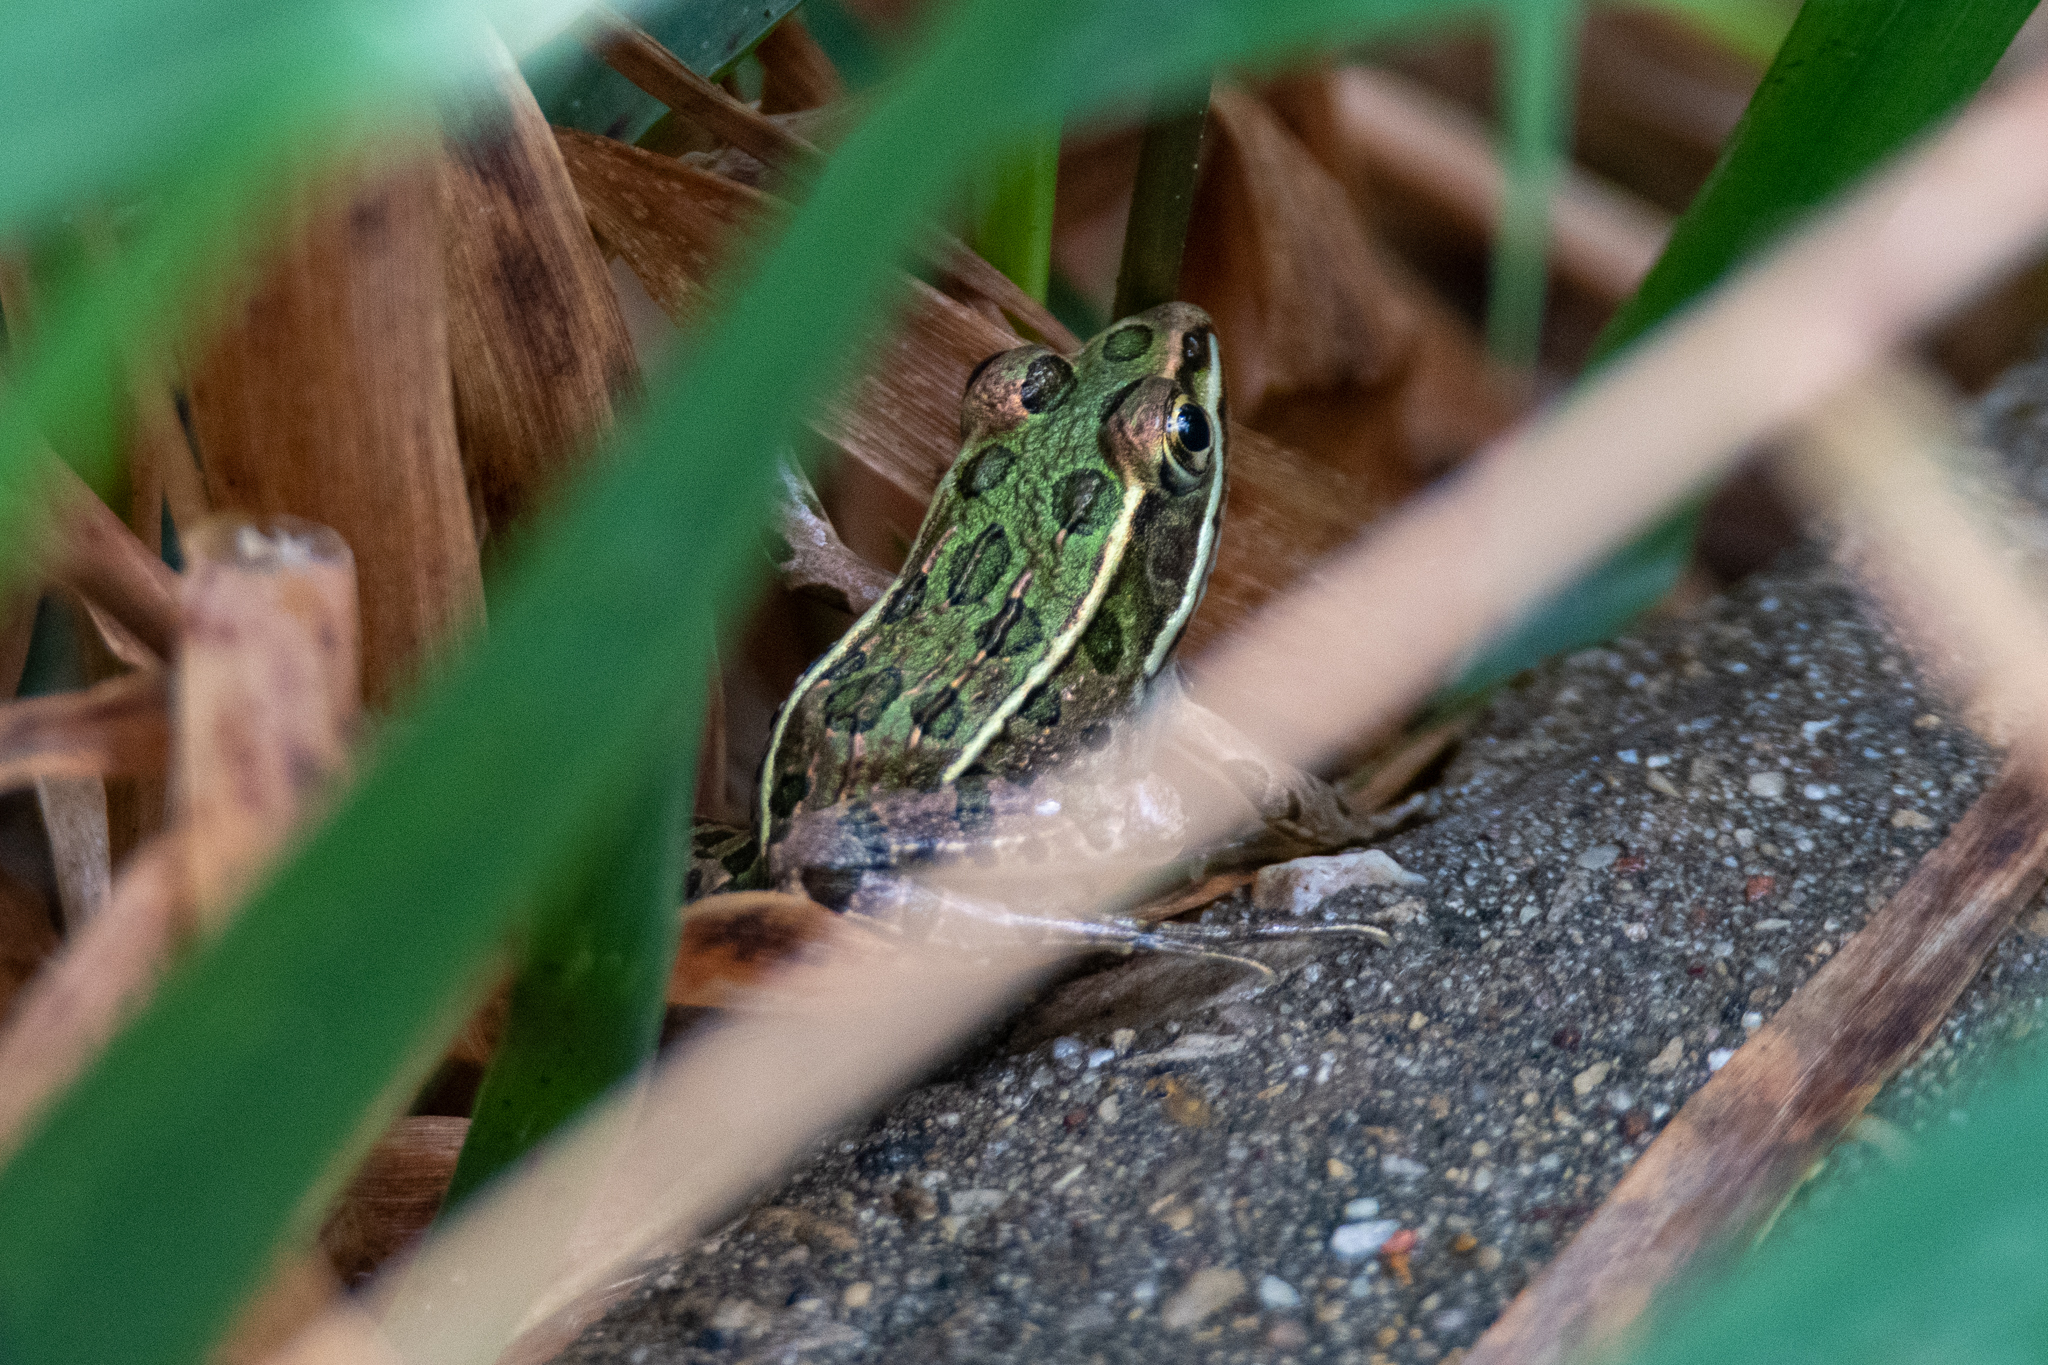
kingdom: Animalia
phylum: Chordata
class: Amphibia
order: Anura
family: Ranidae
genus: Lithobates
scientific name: Lithobates pipiens
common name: Northern leopard frog
